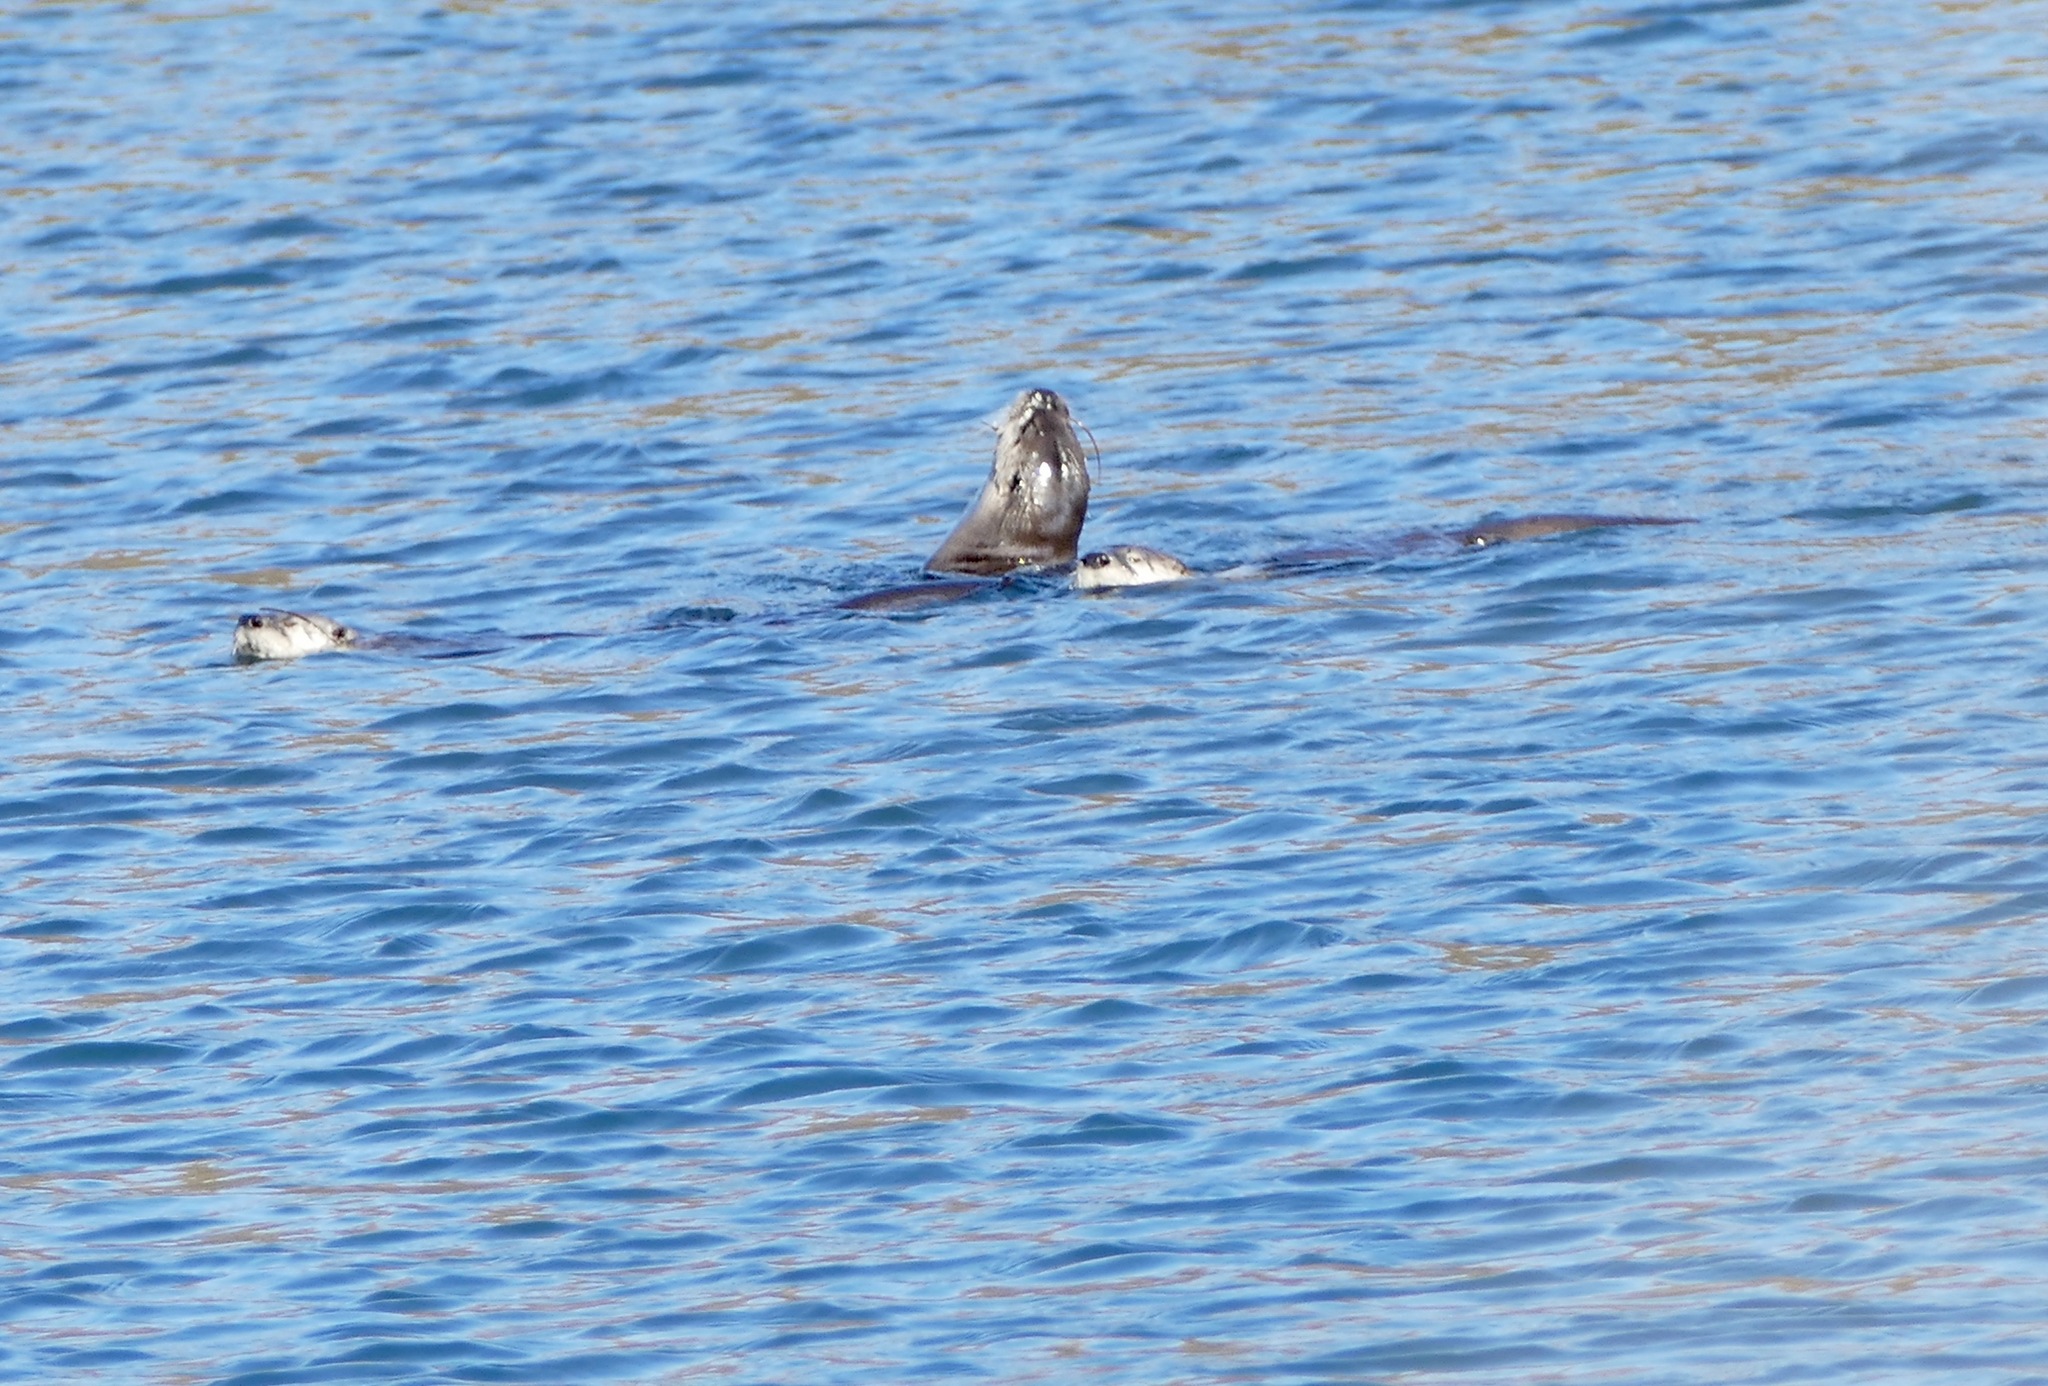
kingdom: Animalia
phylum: Chordata
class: Mammalia
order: Carnivora
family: Mustelidae
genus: Lontra
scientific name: Lontra canadensis
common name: North american river otter
